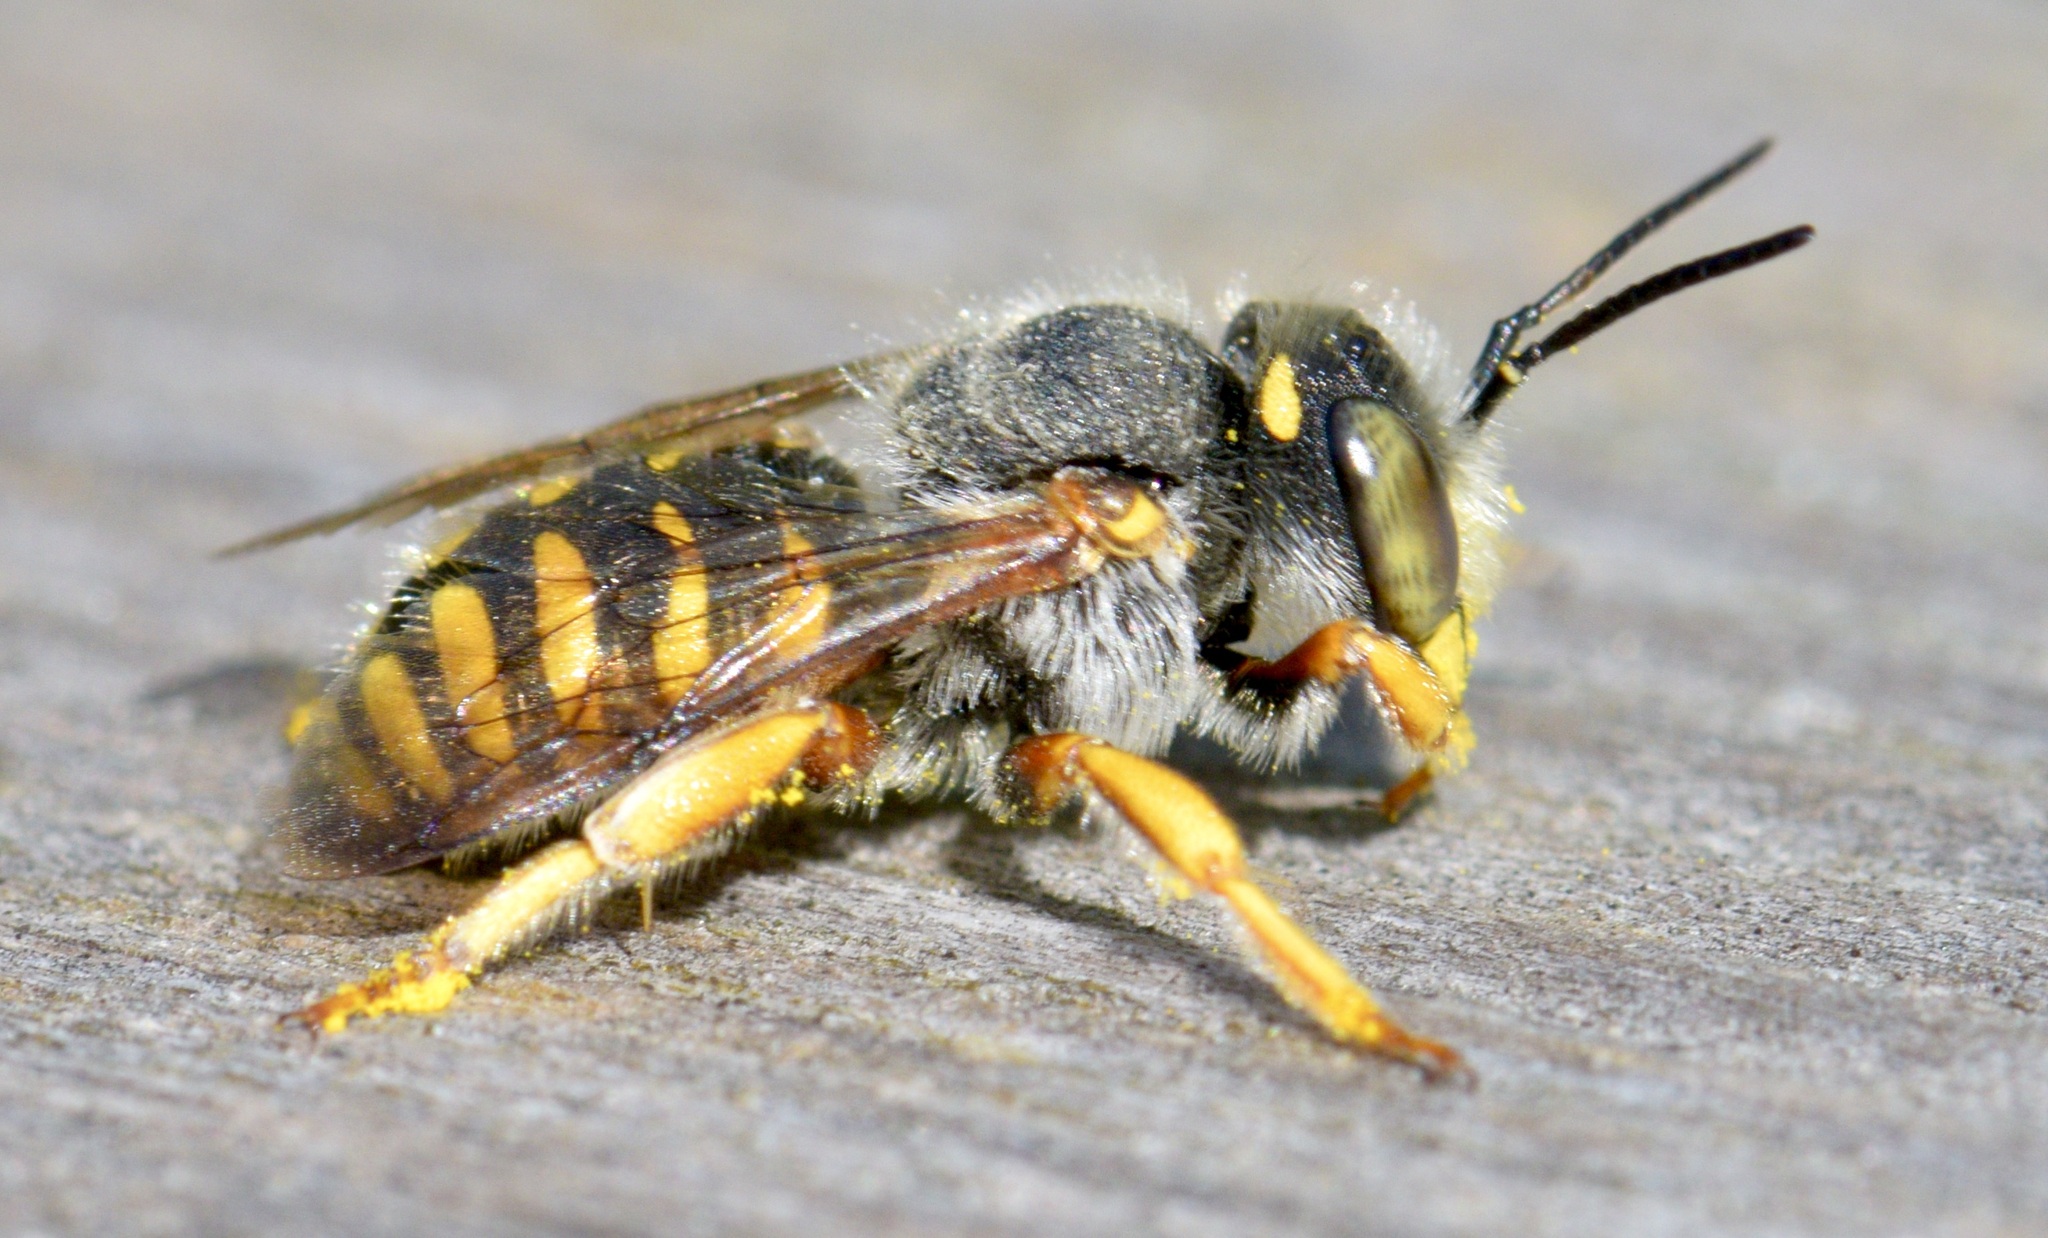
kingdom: Animalia
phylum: Arthropoda
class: Insecta
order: Hymenoptera
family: Megachilidae
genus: Anthidium
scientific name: Anthidium oblongatum
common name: Oblong wool carder bee
